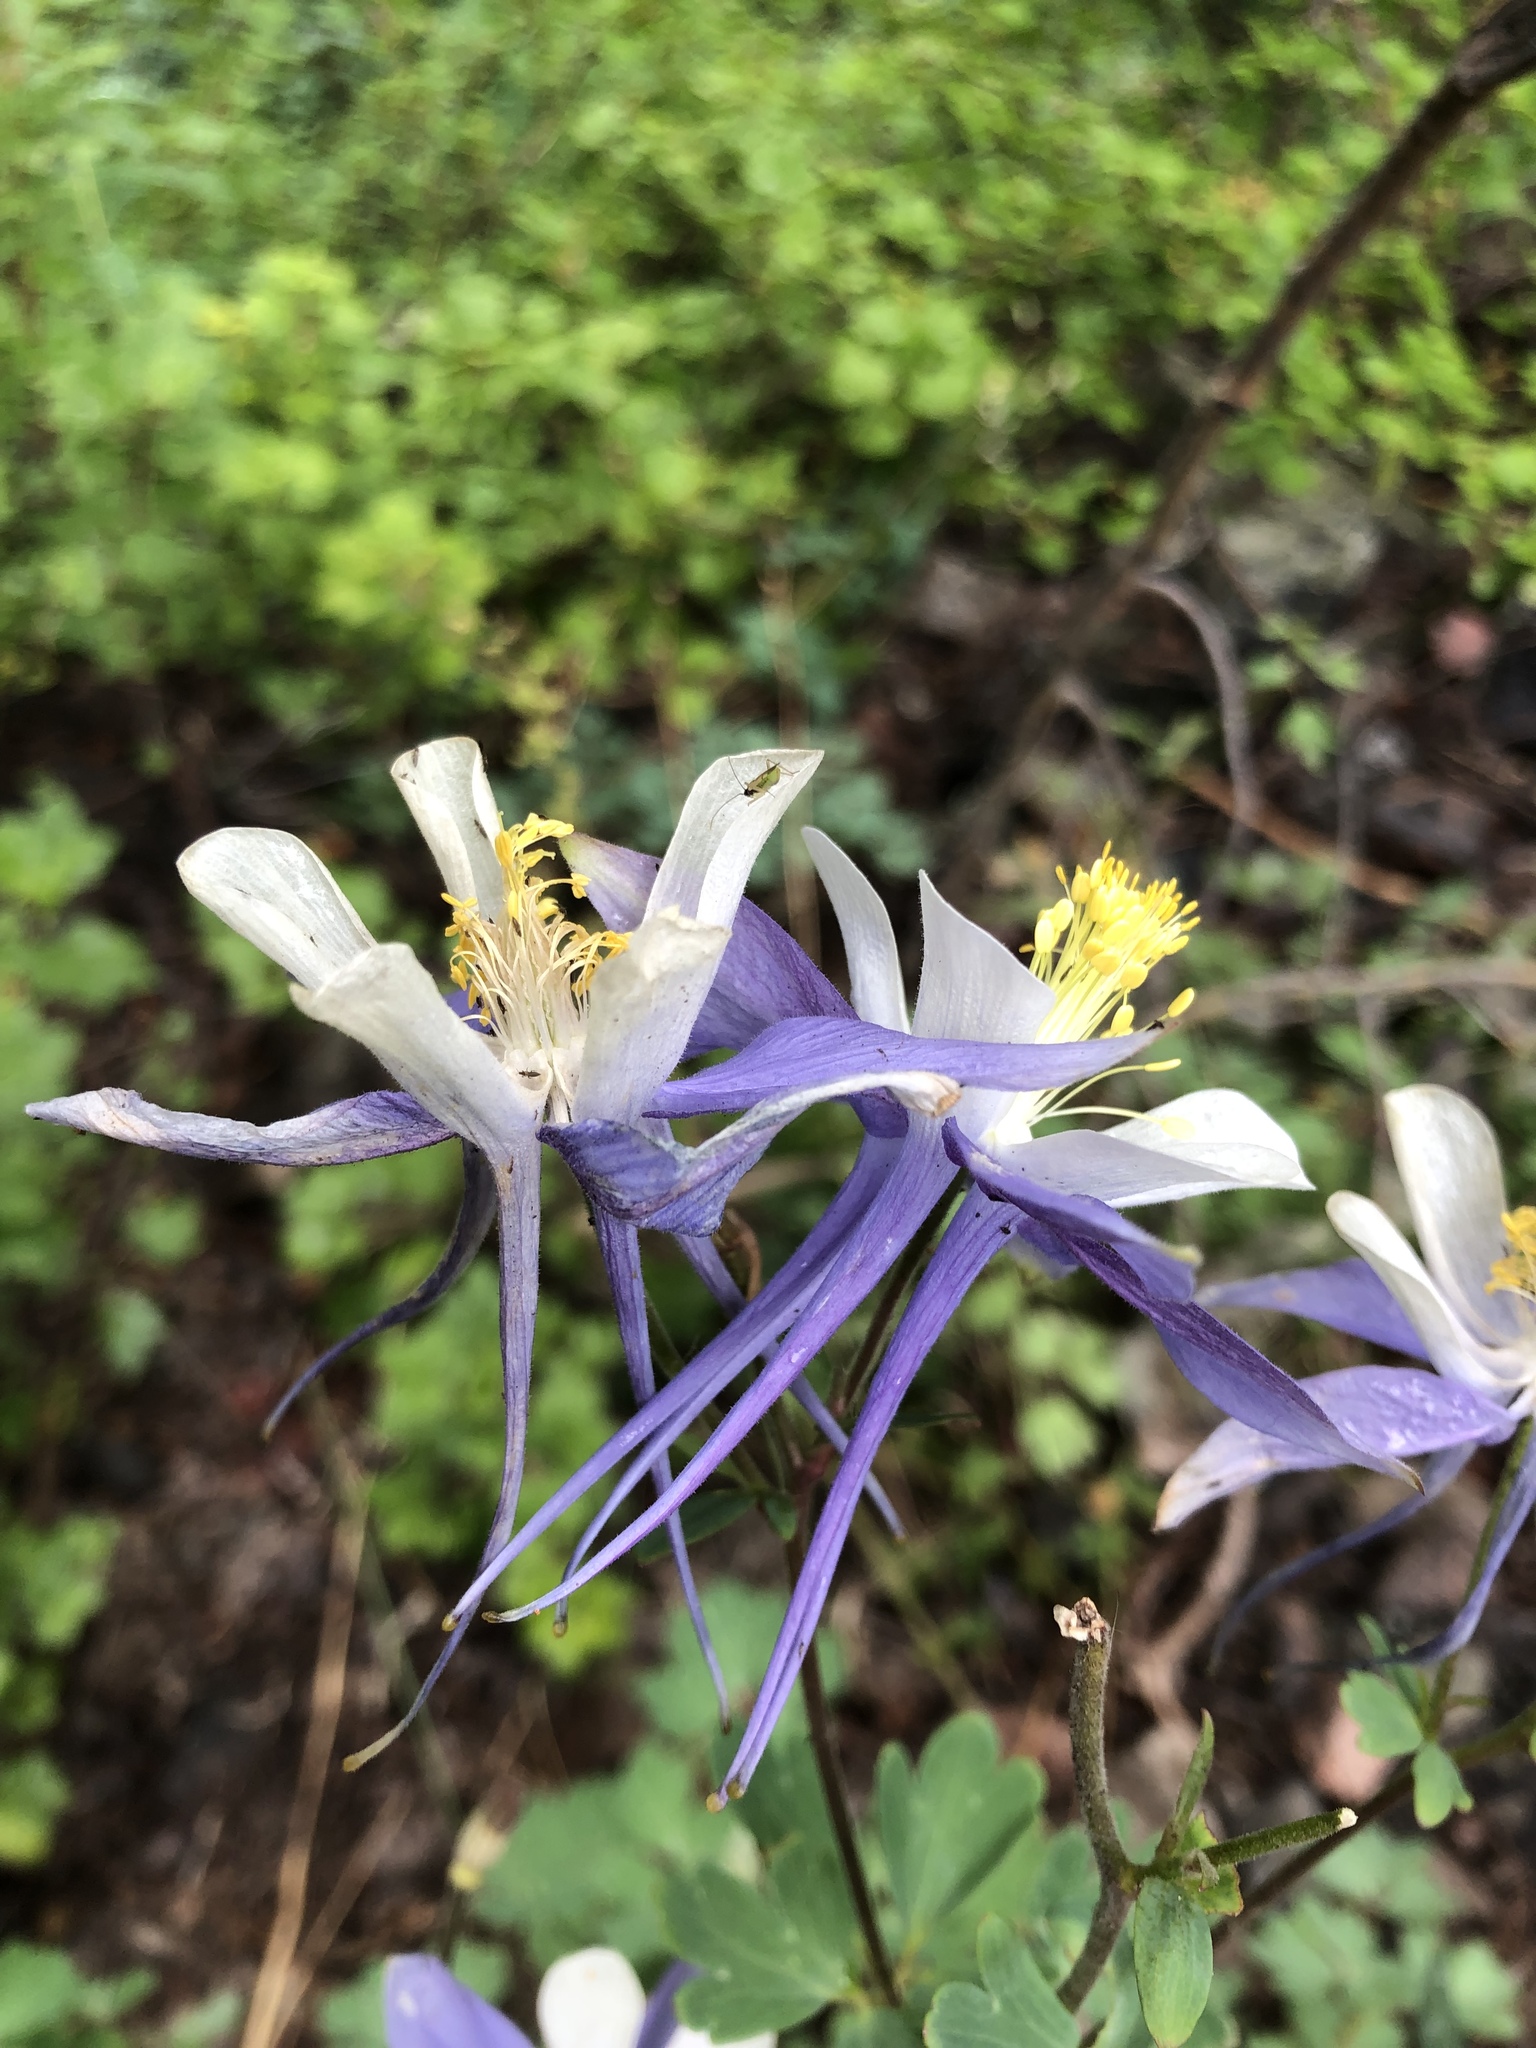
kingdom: Plantae
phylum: Tracheophyta
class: Magnoliopsida
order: Ranunculales
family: Ranunculaceae
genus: Aquilegia
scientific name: Aquilegia coerulea
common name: Rocky mountain columbine
